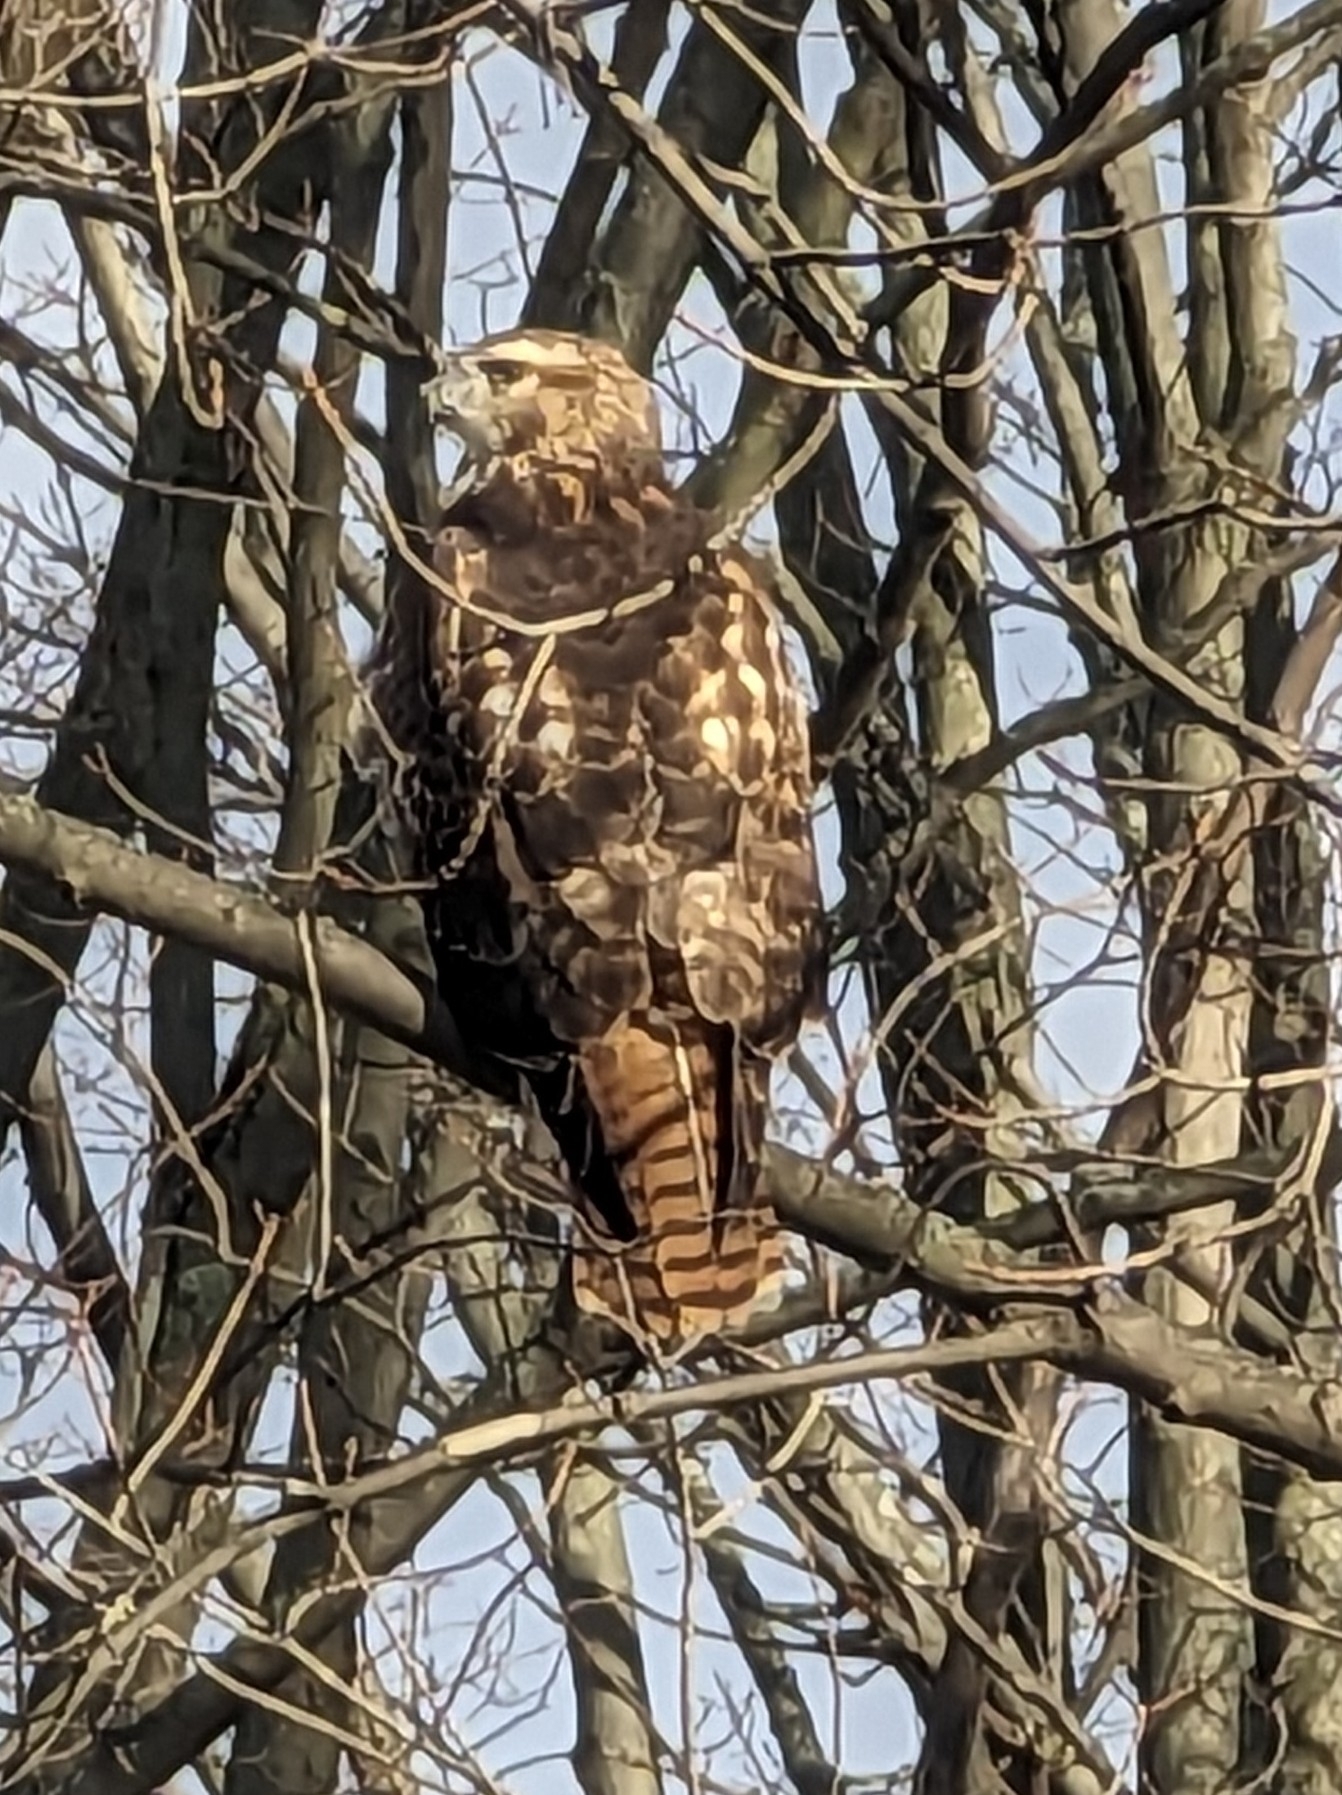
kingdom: Animalia
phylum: Chordata
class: Aves
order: Accipitriformes
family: Accipitridae
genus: Buteo
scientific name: Buteo jamaicensis
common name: Red-tailed hawk
